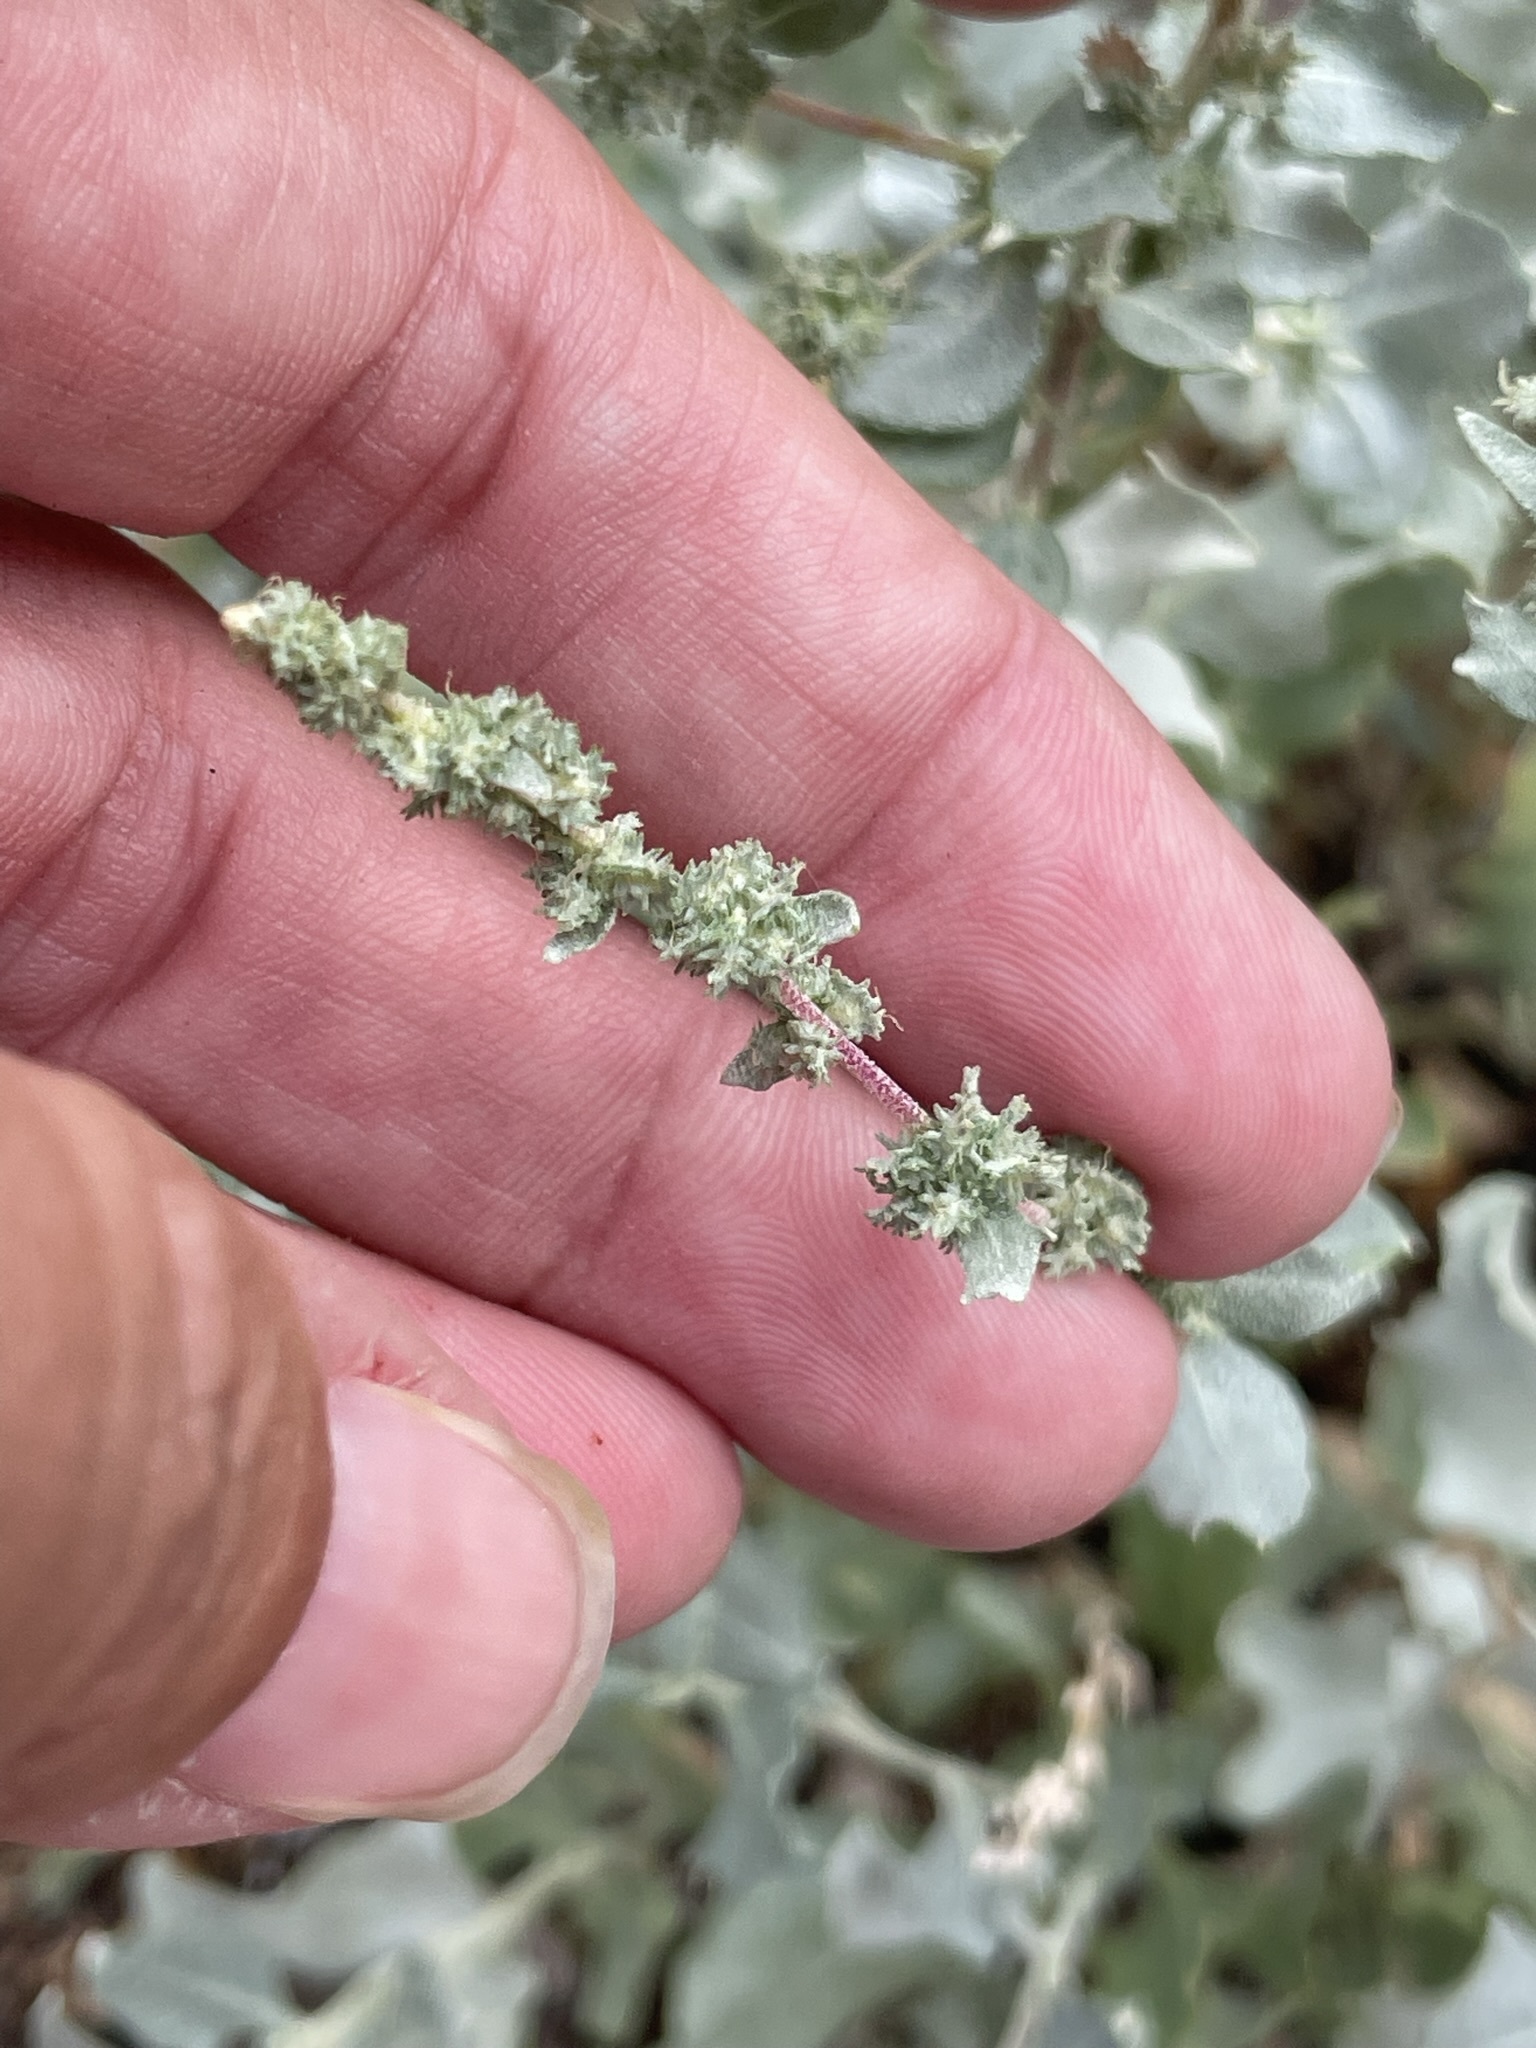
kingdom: Plantae
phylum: Tracheophyta
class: Magnoliopsida
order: Caryophyllales
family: Amaranthaceae
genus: Atriplex
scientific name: Atriplex barclayana
